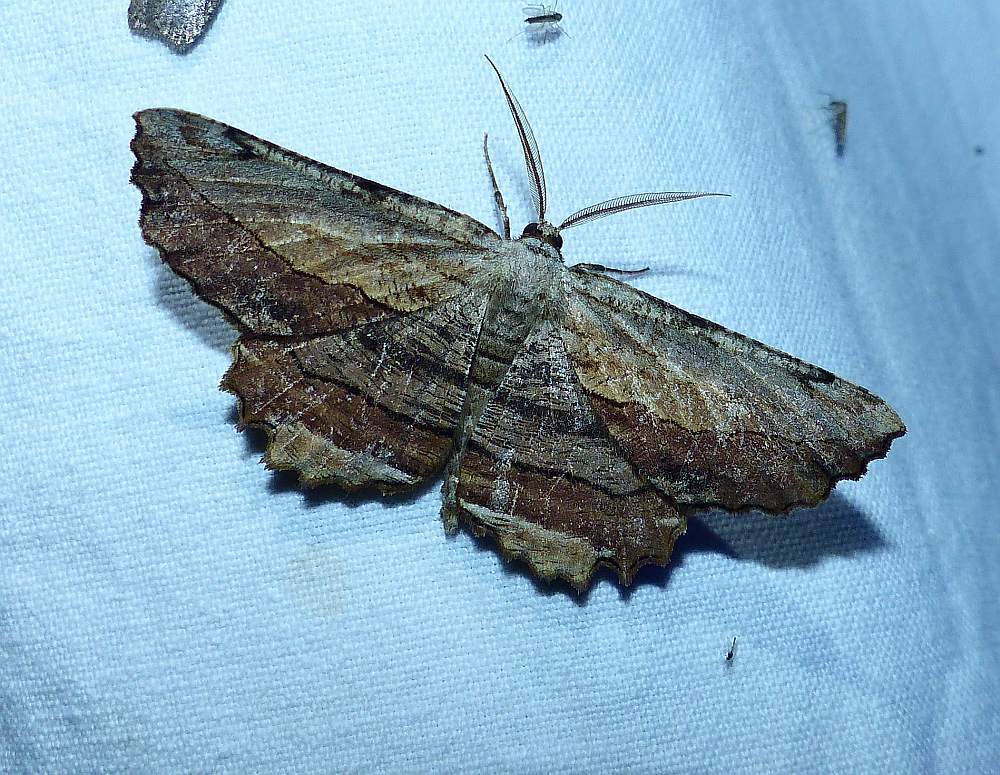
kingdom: Animalia
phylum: Arthropoda
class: Insecta
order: Lepidoptera
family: Geometridae
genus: Lytrosis
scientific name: Lytrosis unitaria
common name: Common lytrosis
